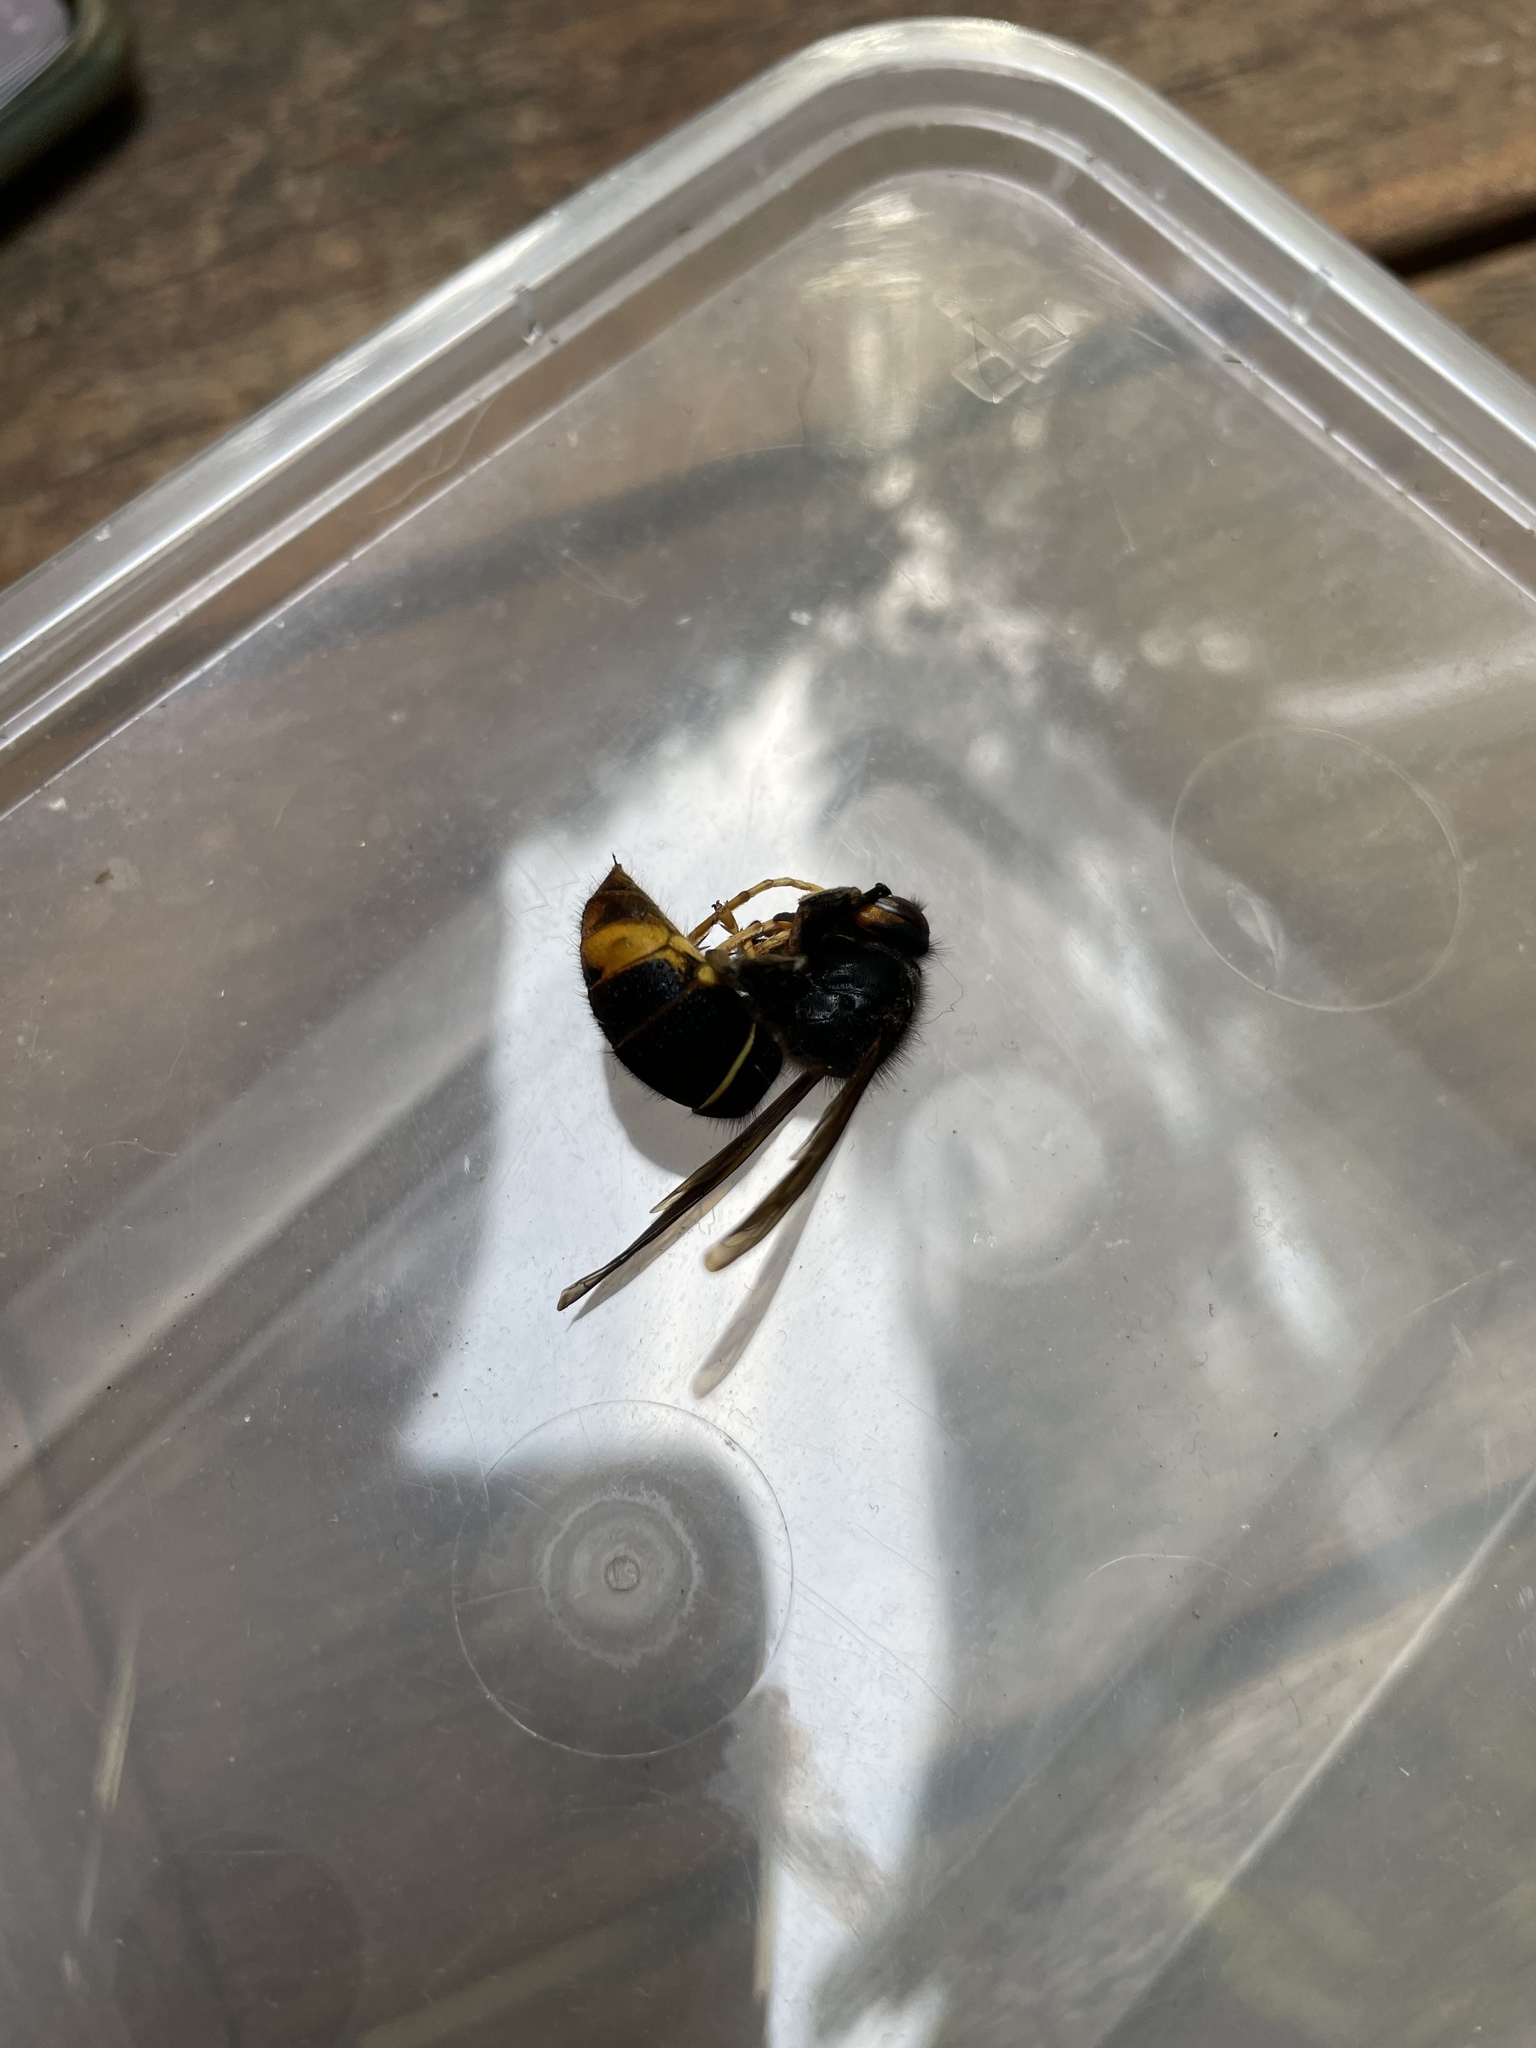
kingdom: Animalia
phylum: Arthropoda
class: Insecta
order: Hymenoptera
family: Vespidae
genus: Vespa
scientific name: Vespa velutina
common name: Asian hornet
